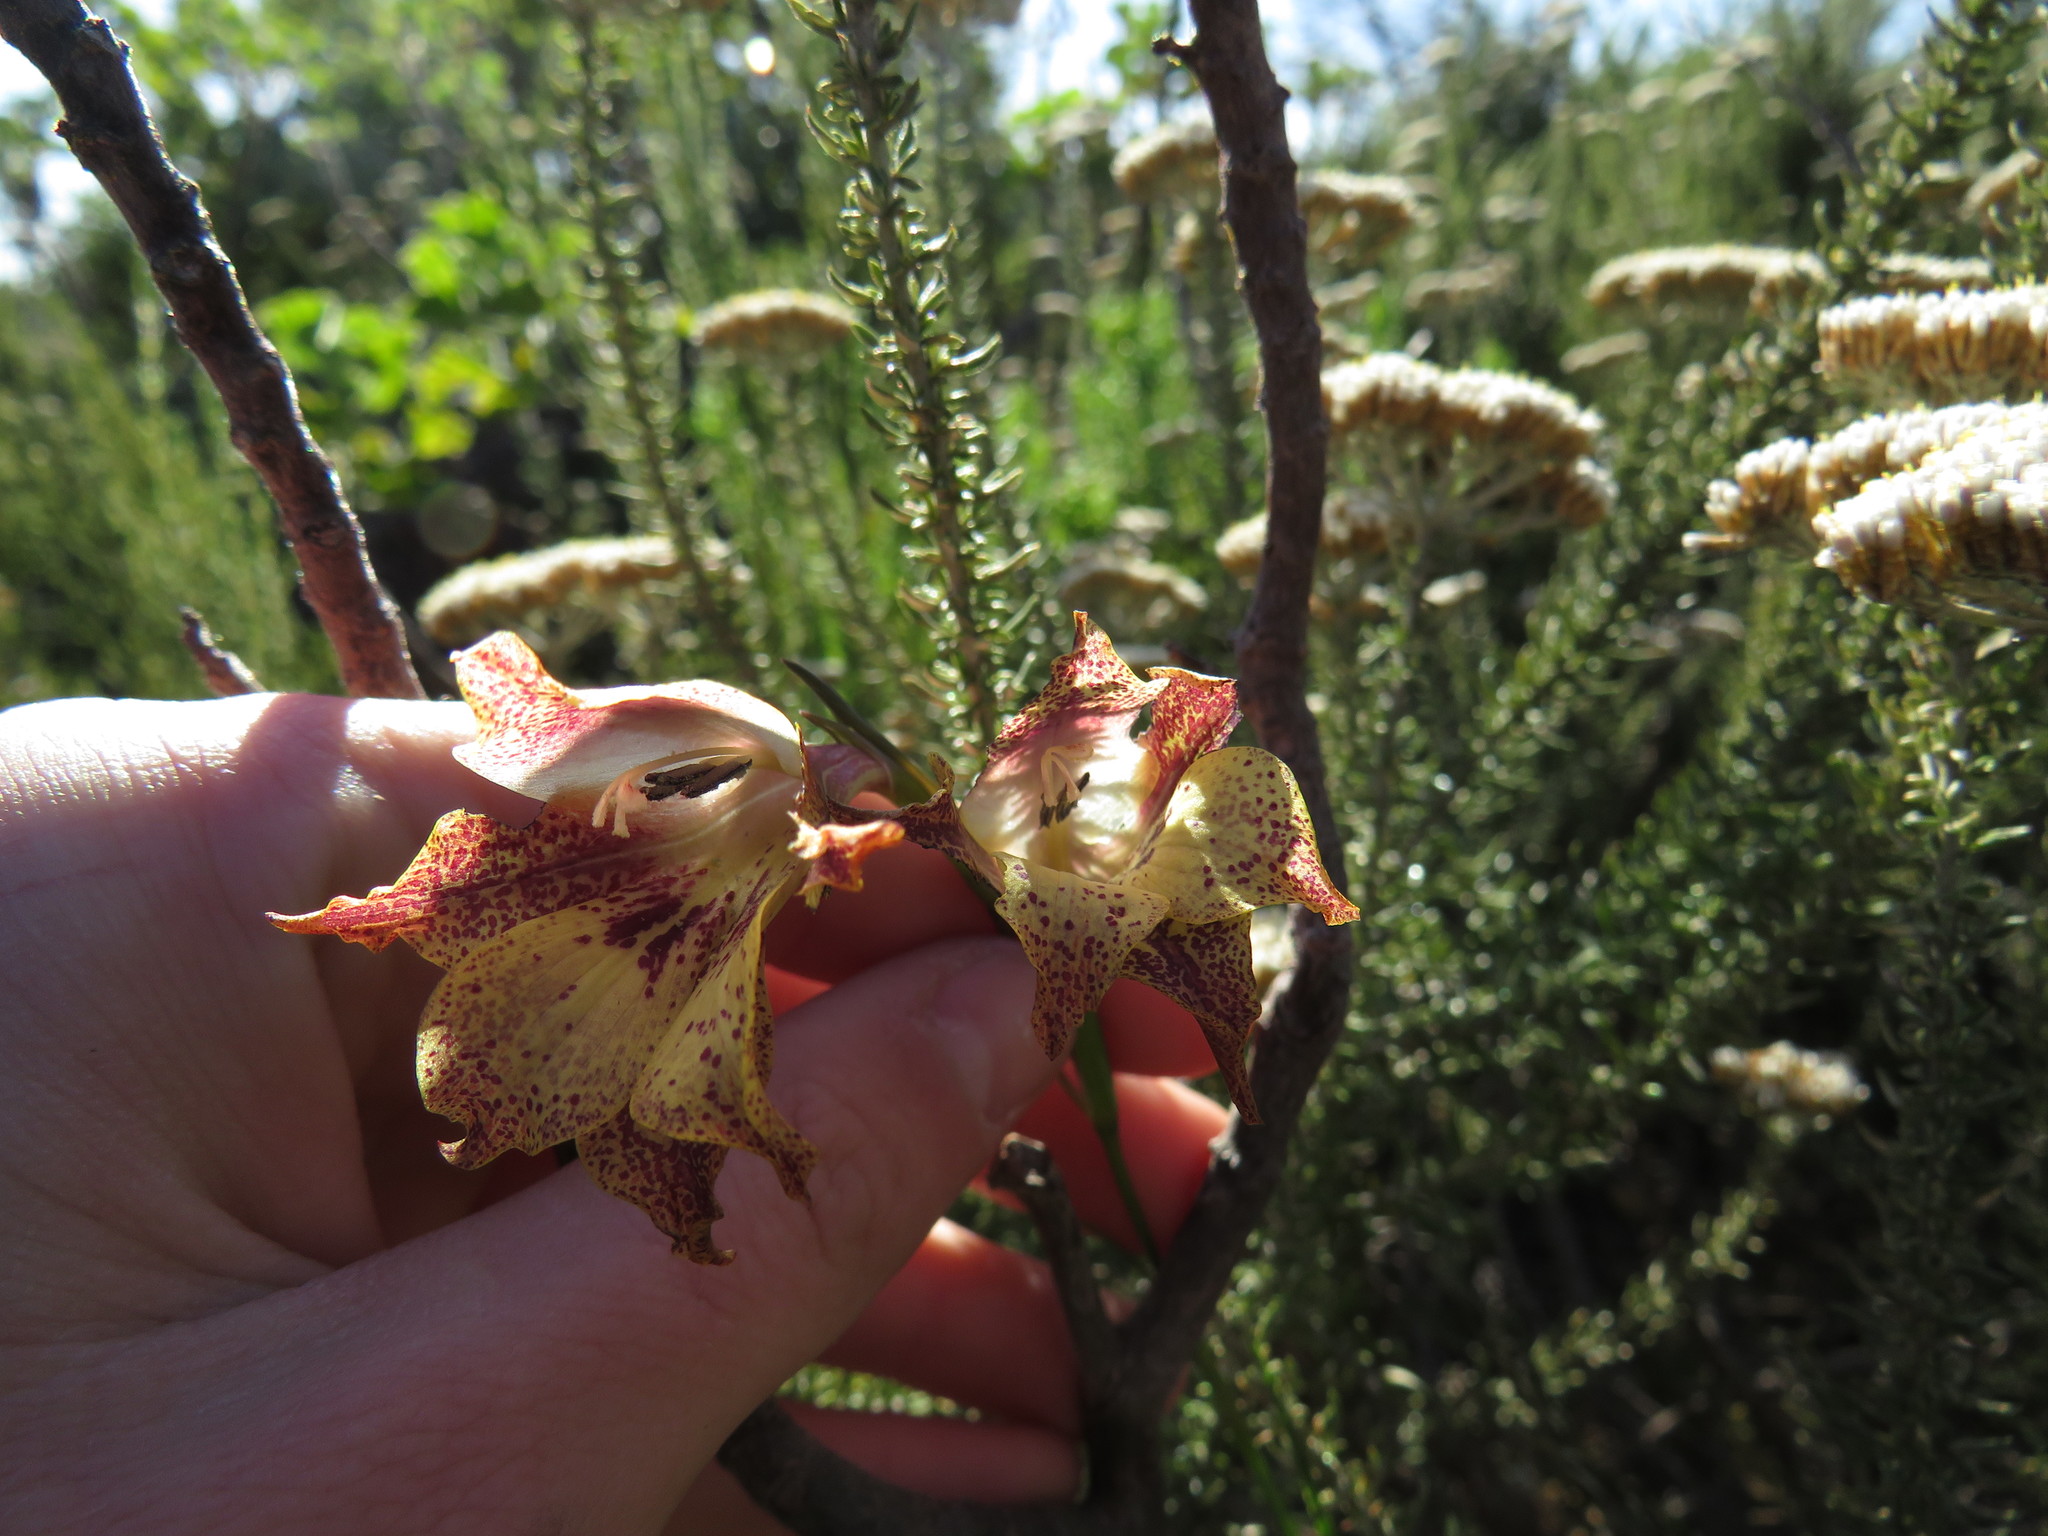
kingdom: Plantae
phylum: Tracheophyta
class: Liliopsida
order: Asparagales
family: Iridaceae
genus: Gladiolus
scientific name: Gladiolus maculatus
